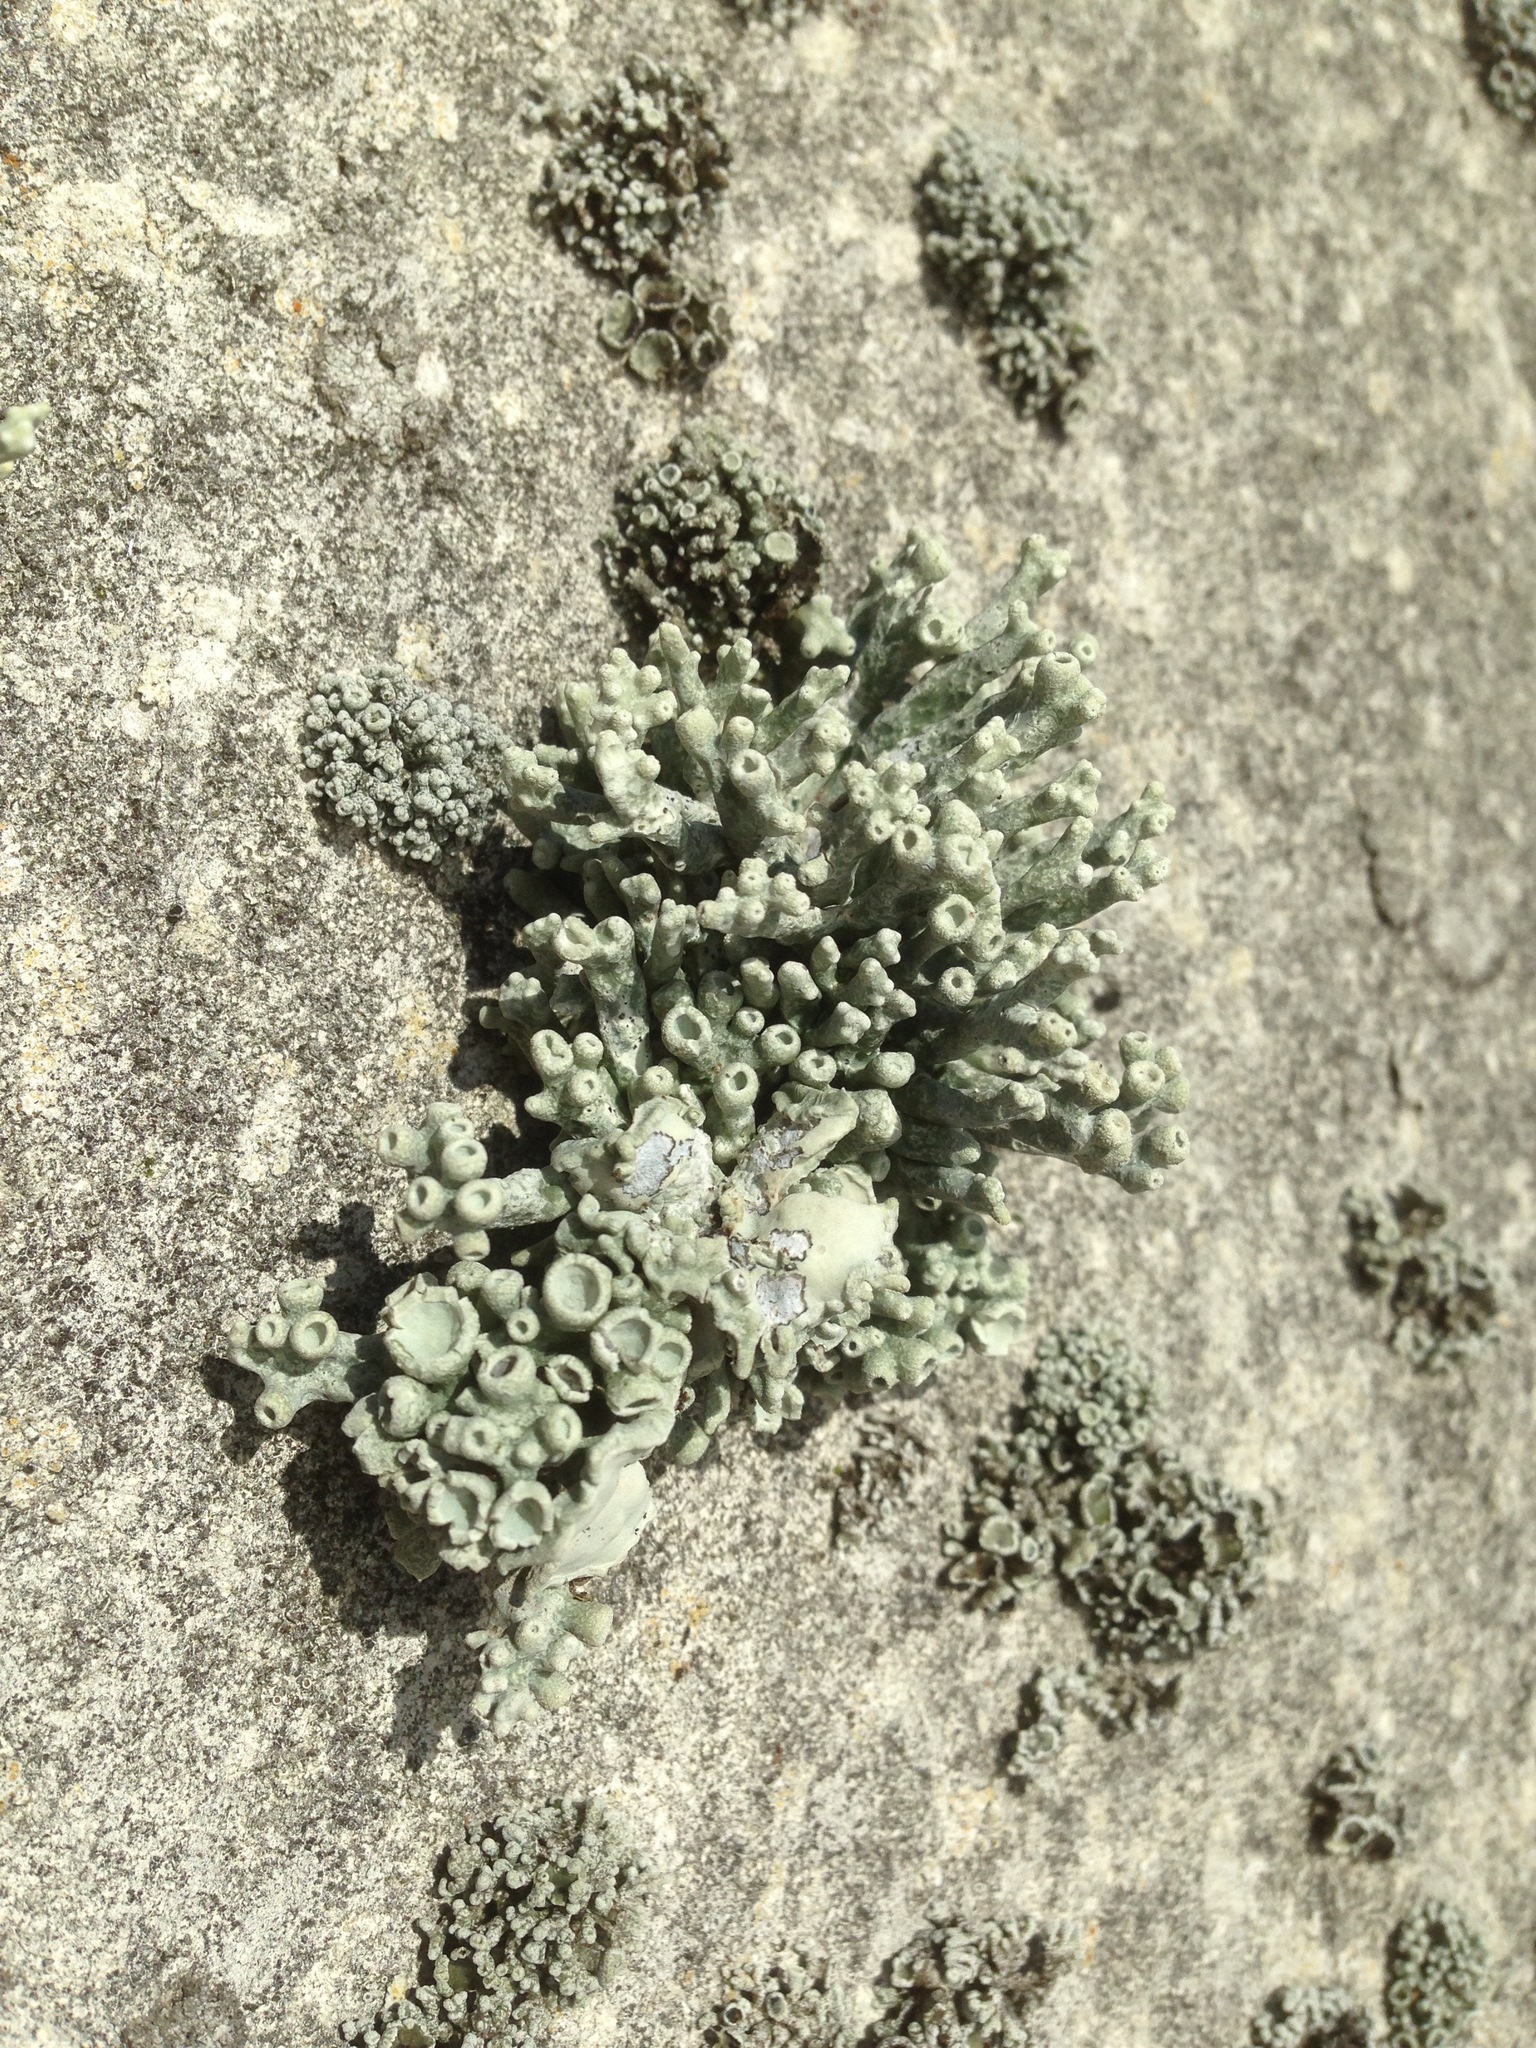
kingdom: Fungi
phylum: Ascomycota
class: Lecanoromycetes
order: Lecanorales
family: Ramalinaceae
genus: Niebla
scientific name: Niebla combeoides
